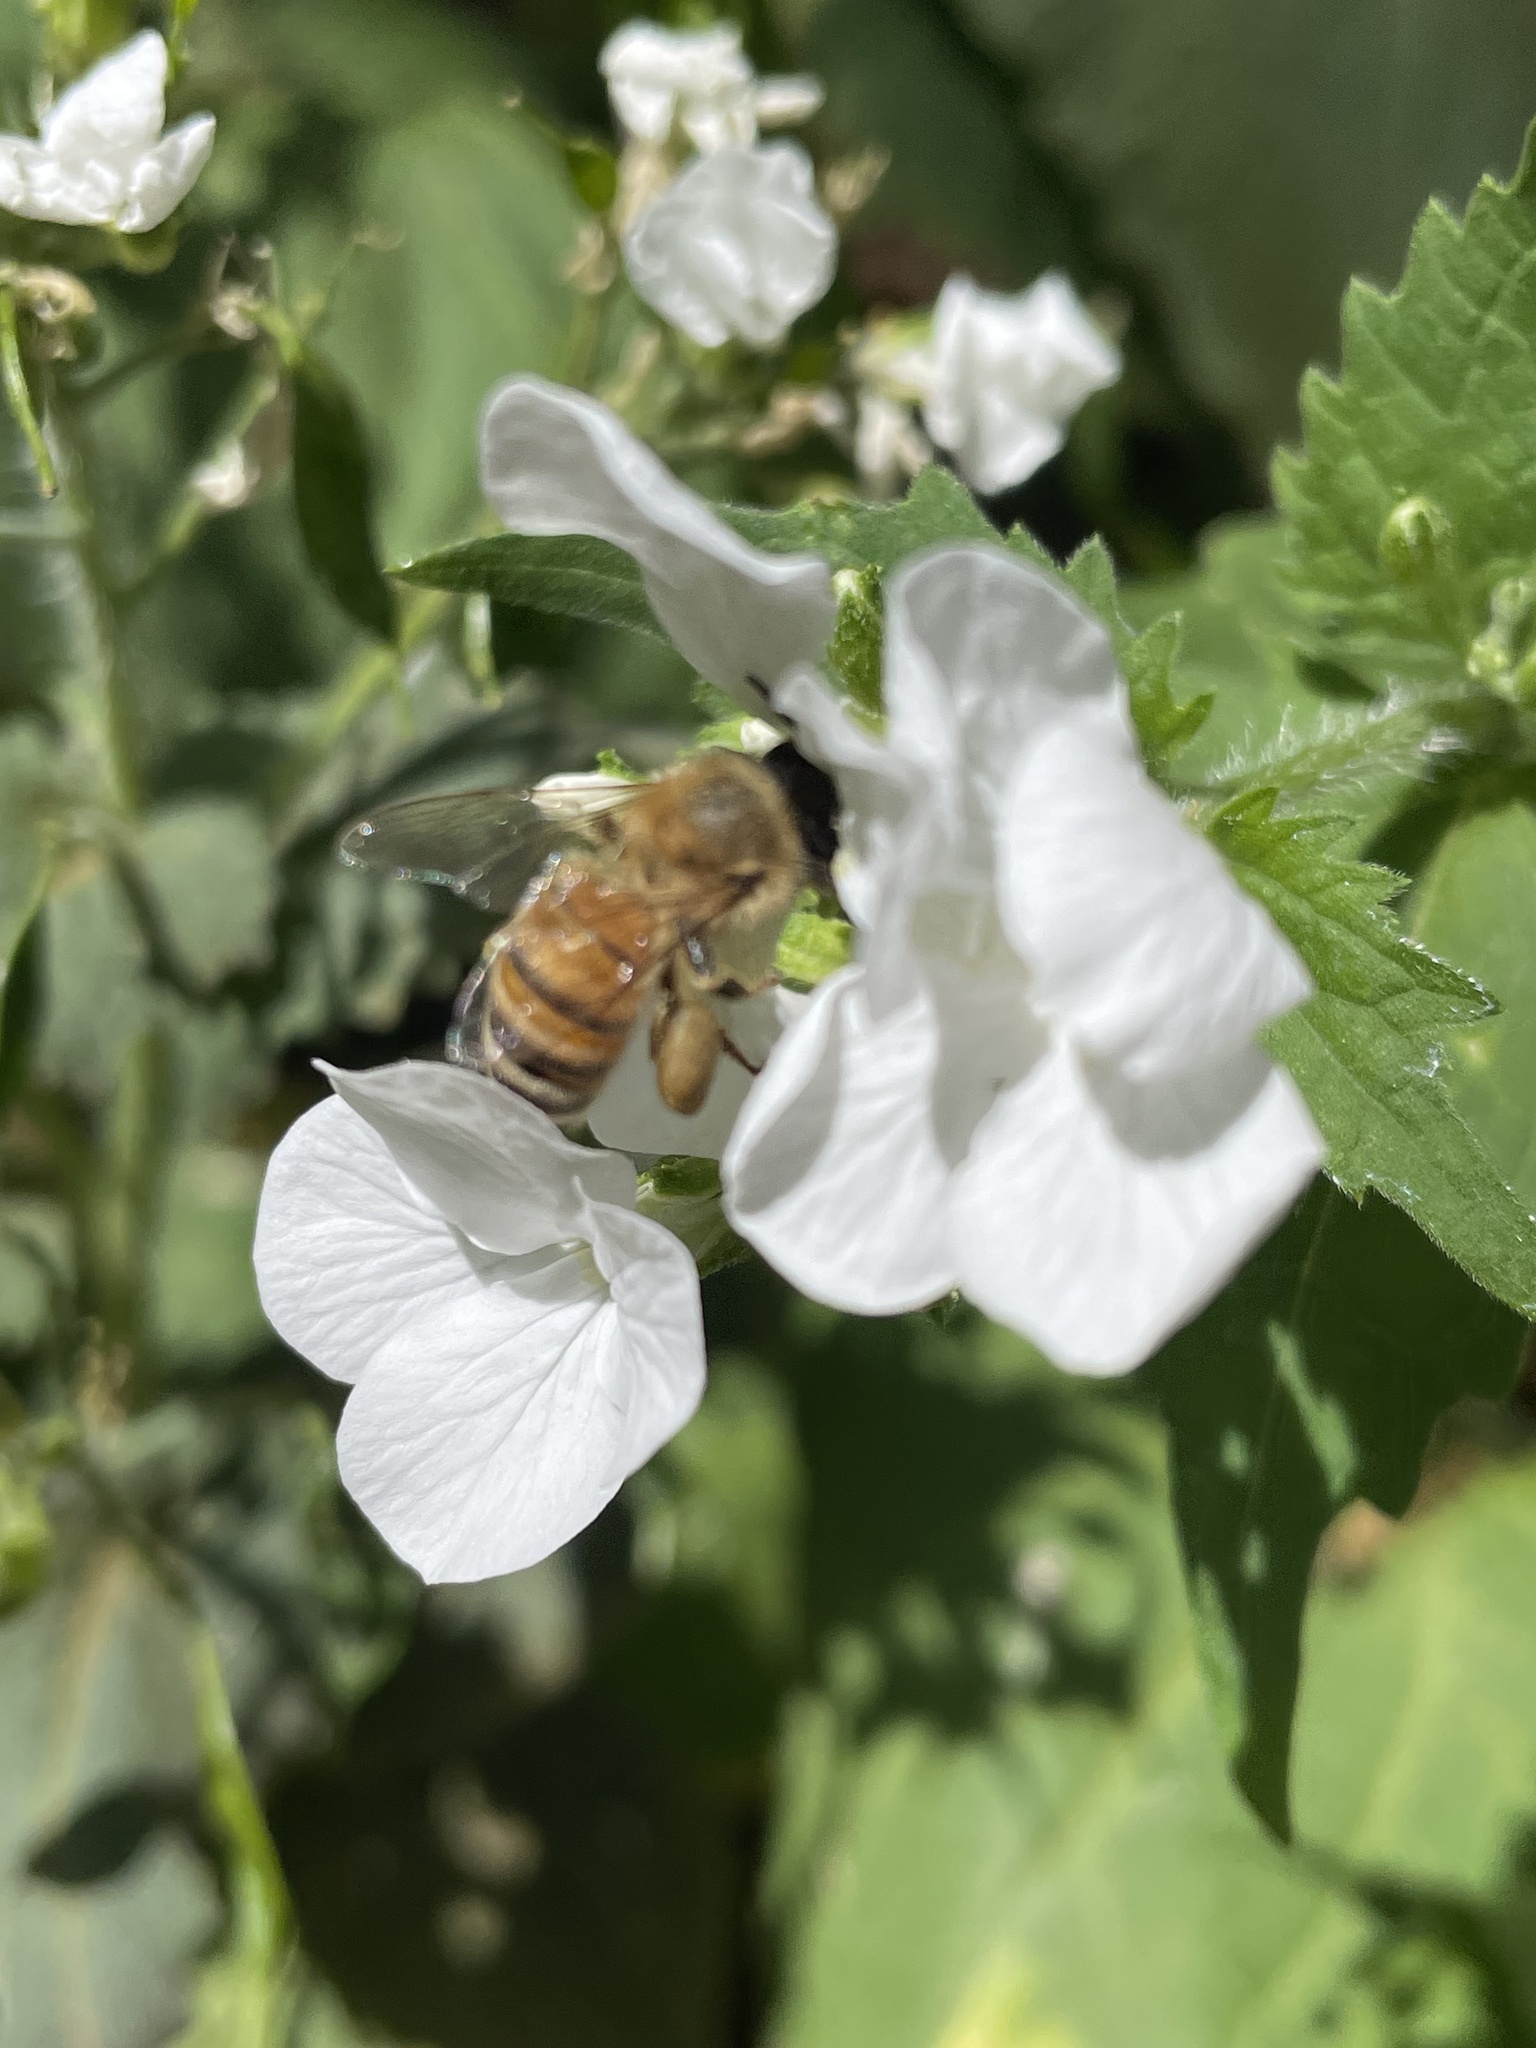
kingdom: Animalia
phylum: Arthropoda
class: Insecta
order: Hymenoptera
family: Apidae
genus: Apis
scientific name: Apis mellifera
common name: Honey bee
